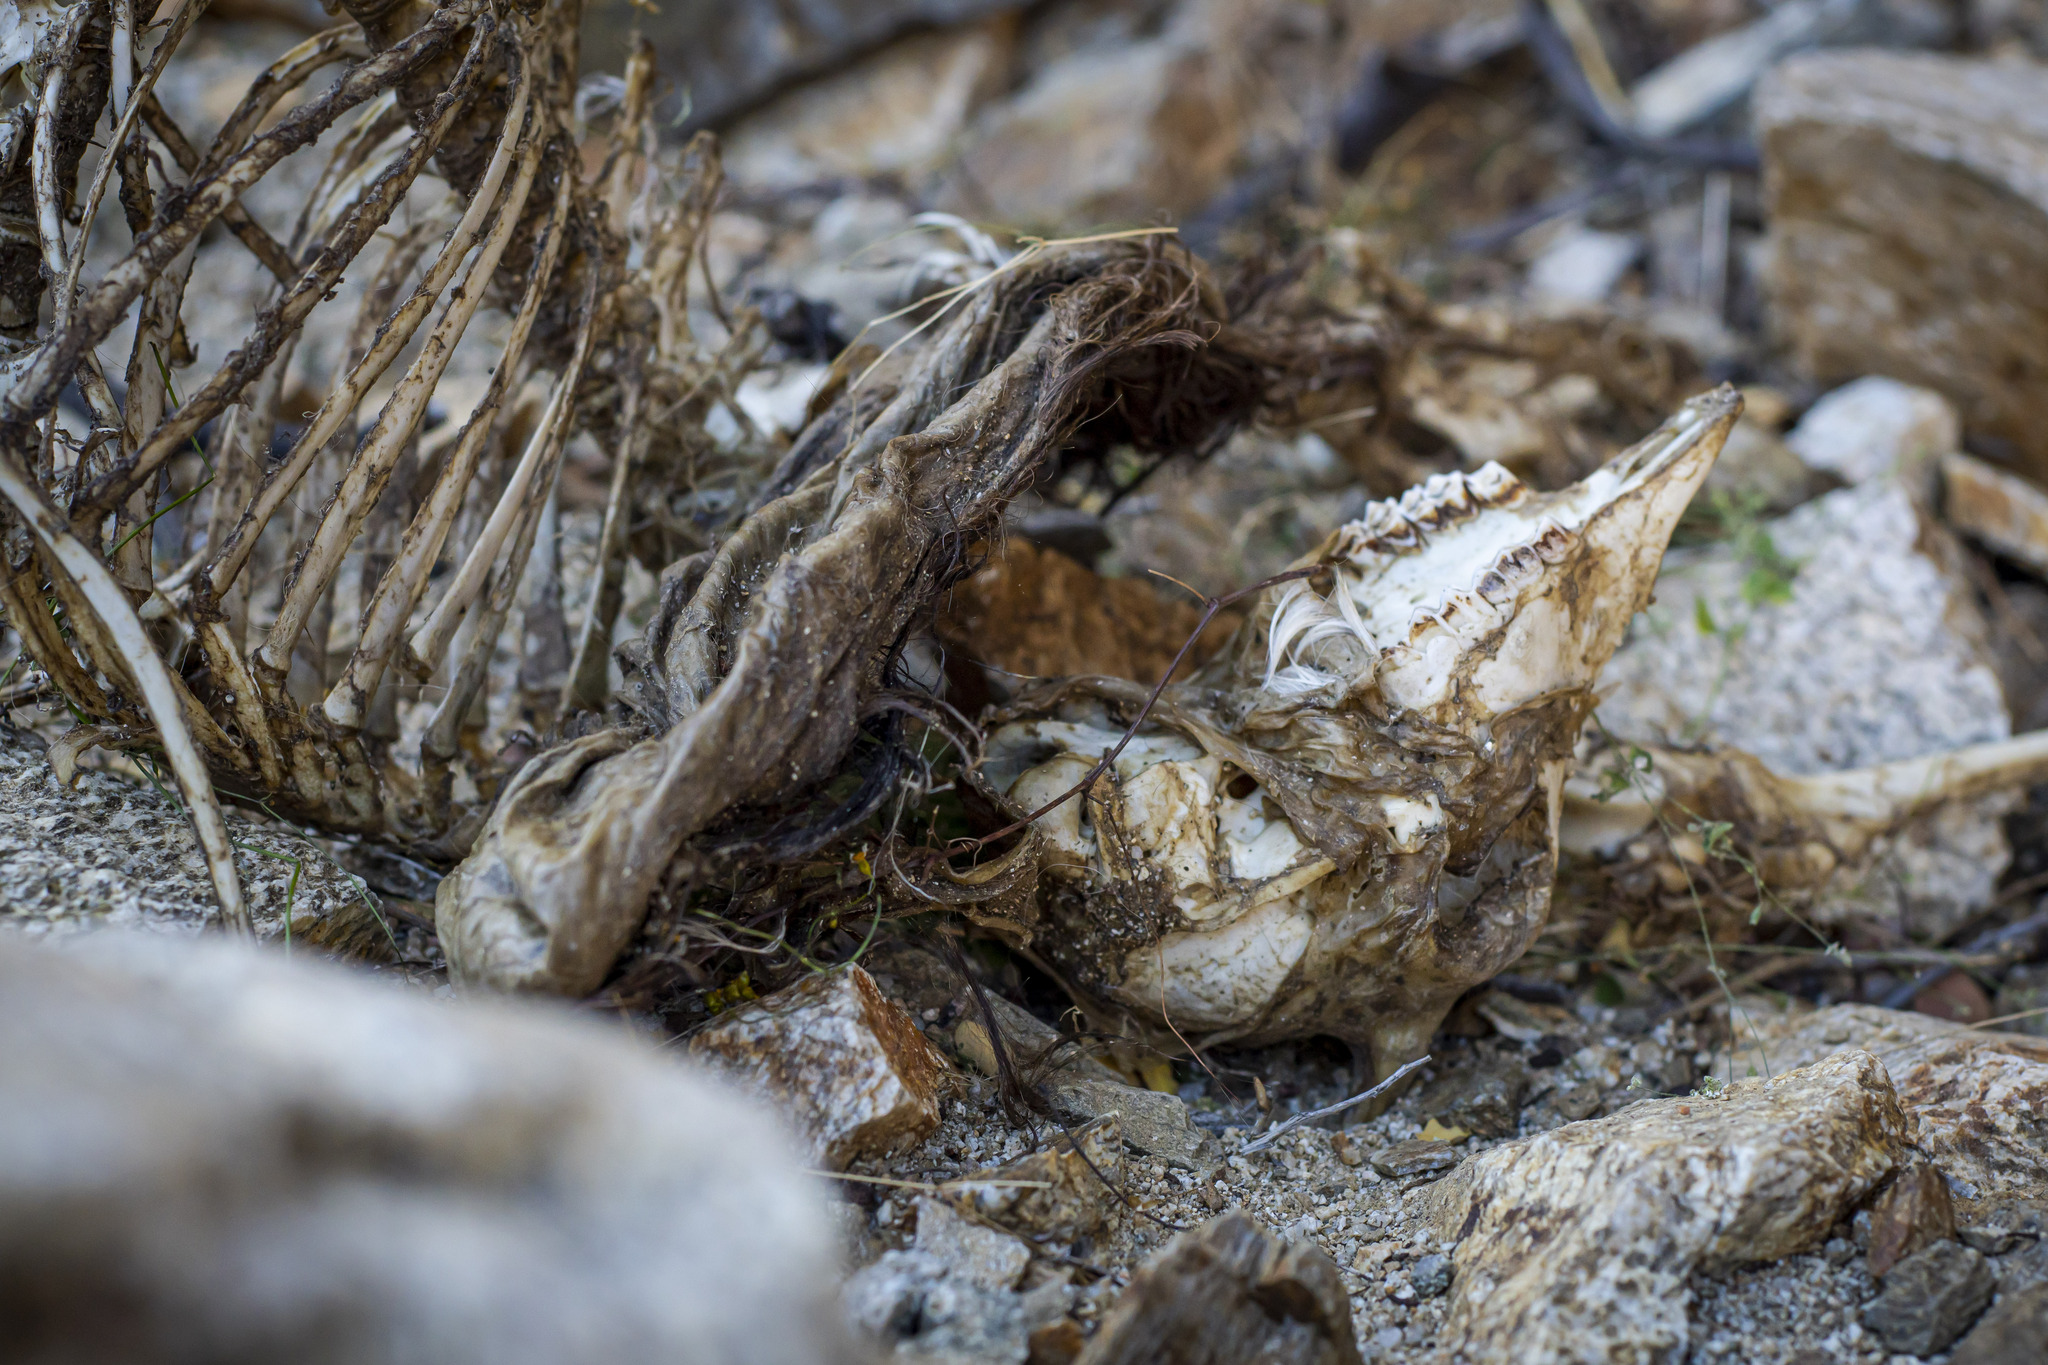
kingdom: Animalia
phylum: Chordata
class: Mammalia
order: Artiodactyla
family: Bovidae
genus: Capra
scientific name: Capra hircus
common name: Domestic goat
